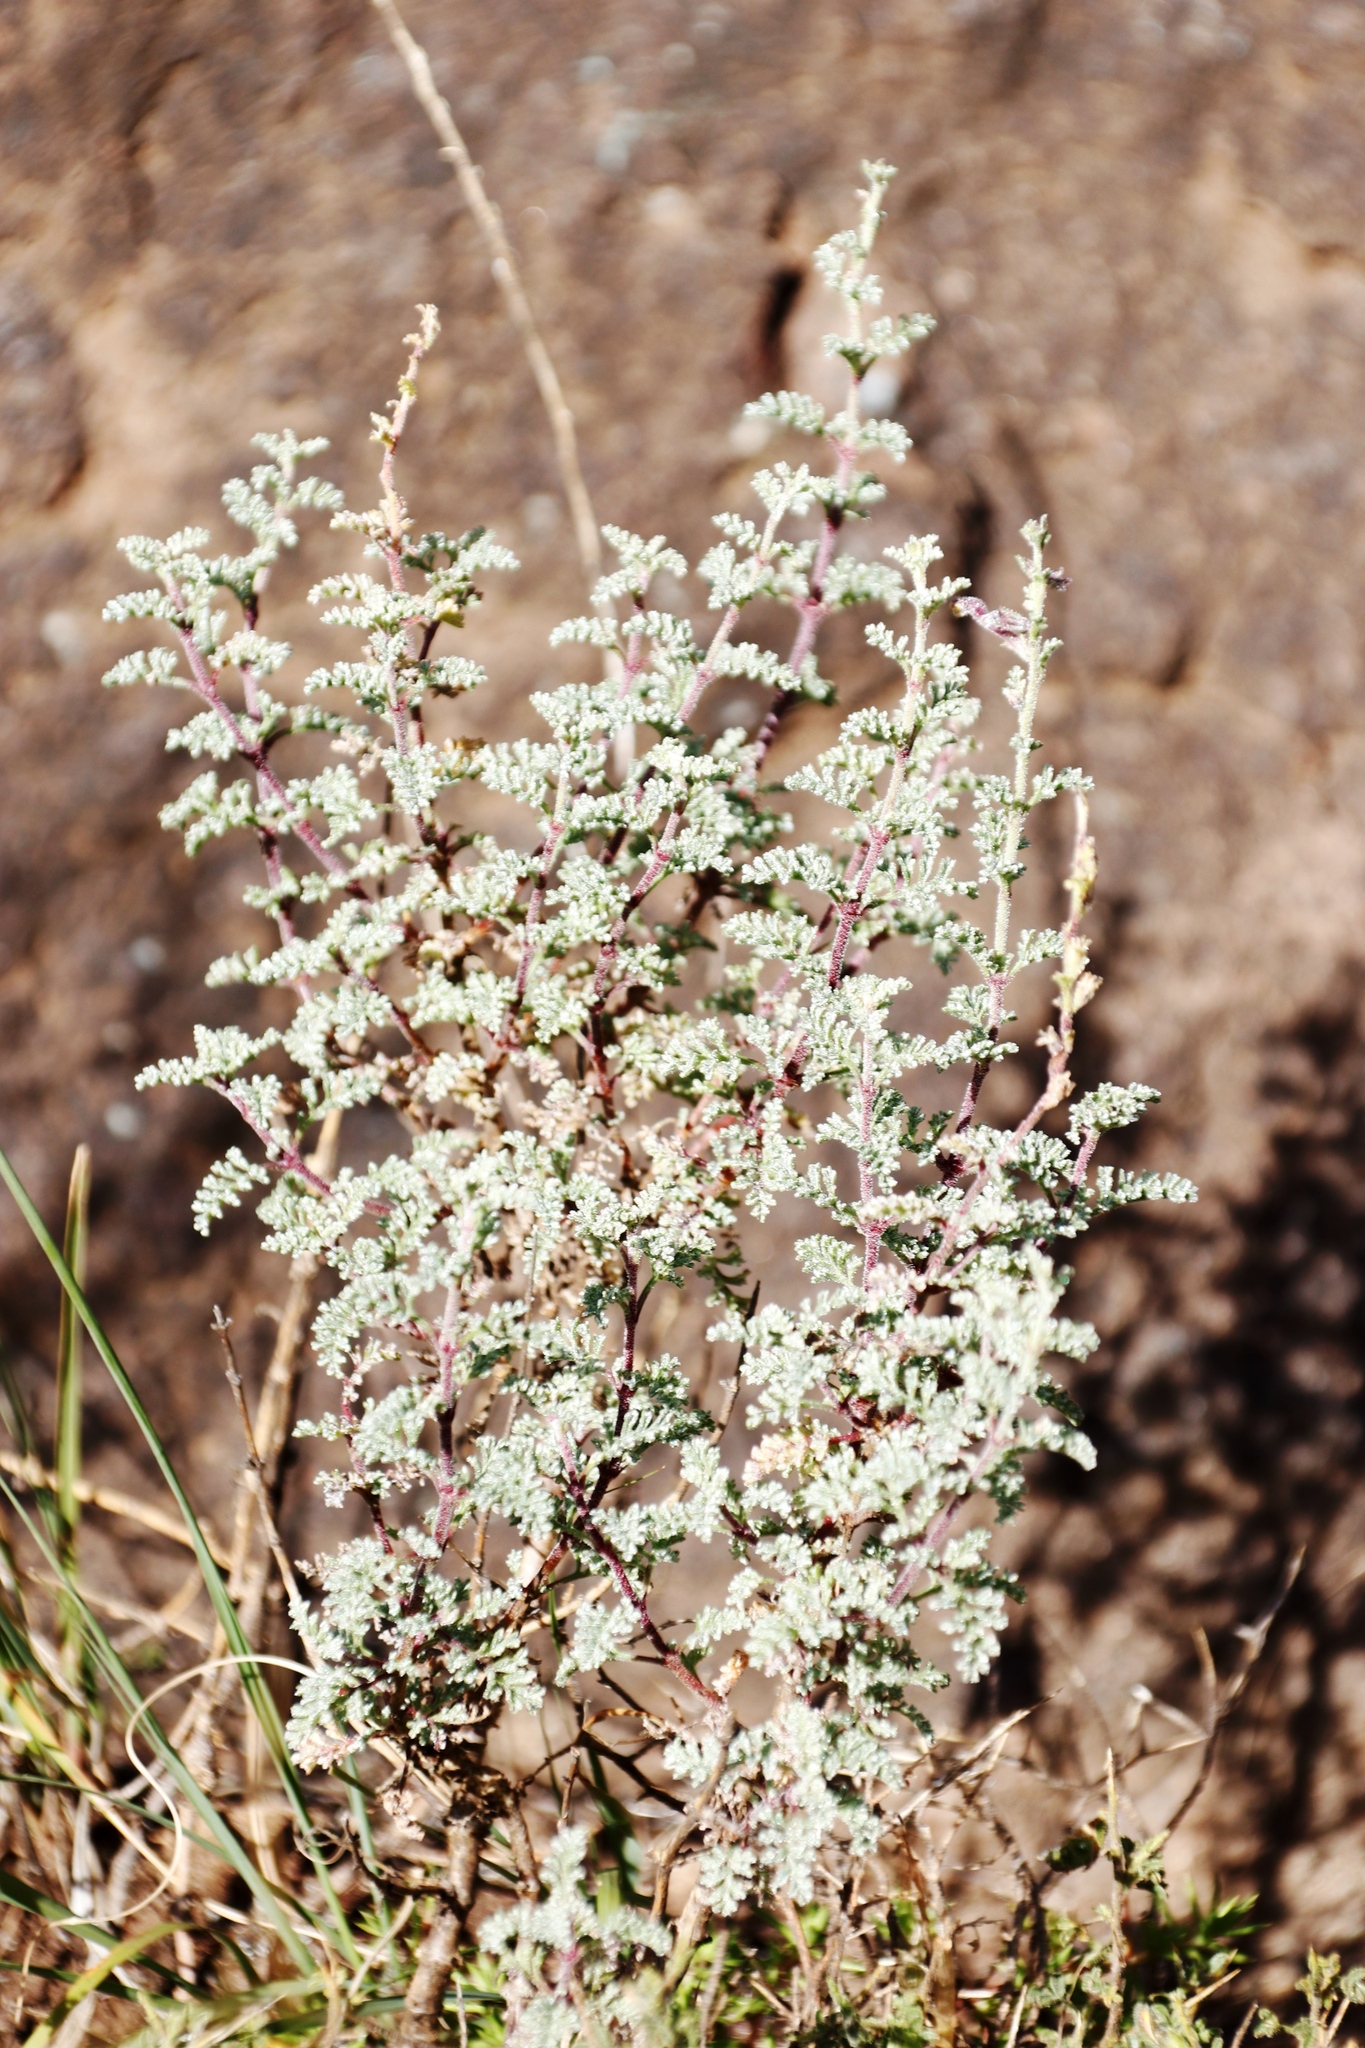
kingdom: Plantae
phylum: Tracheophyta
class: Magnoliopsida
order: Lamiales
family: Scrophulariaceae
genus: Jamesbrittenia
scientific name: Jamesbrittenia pristisepala
